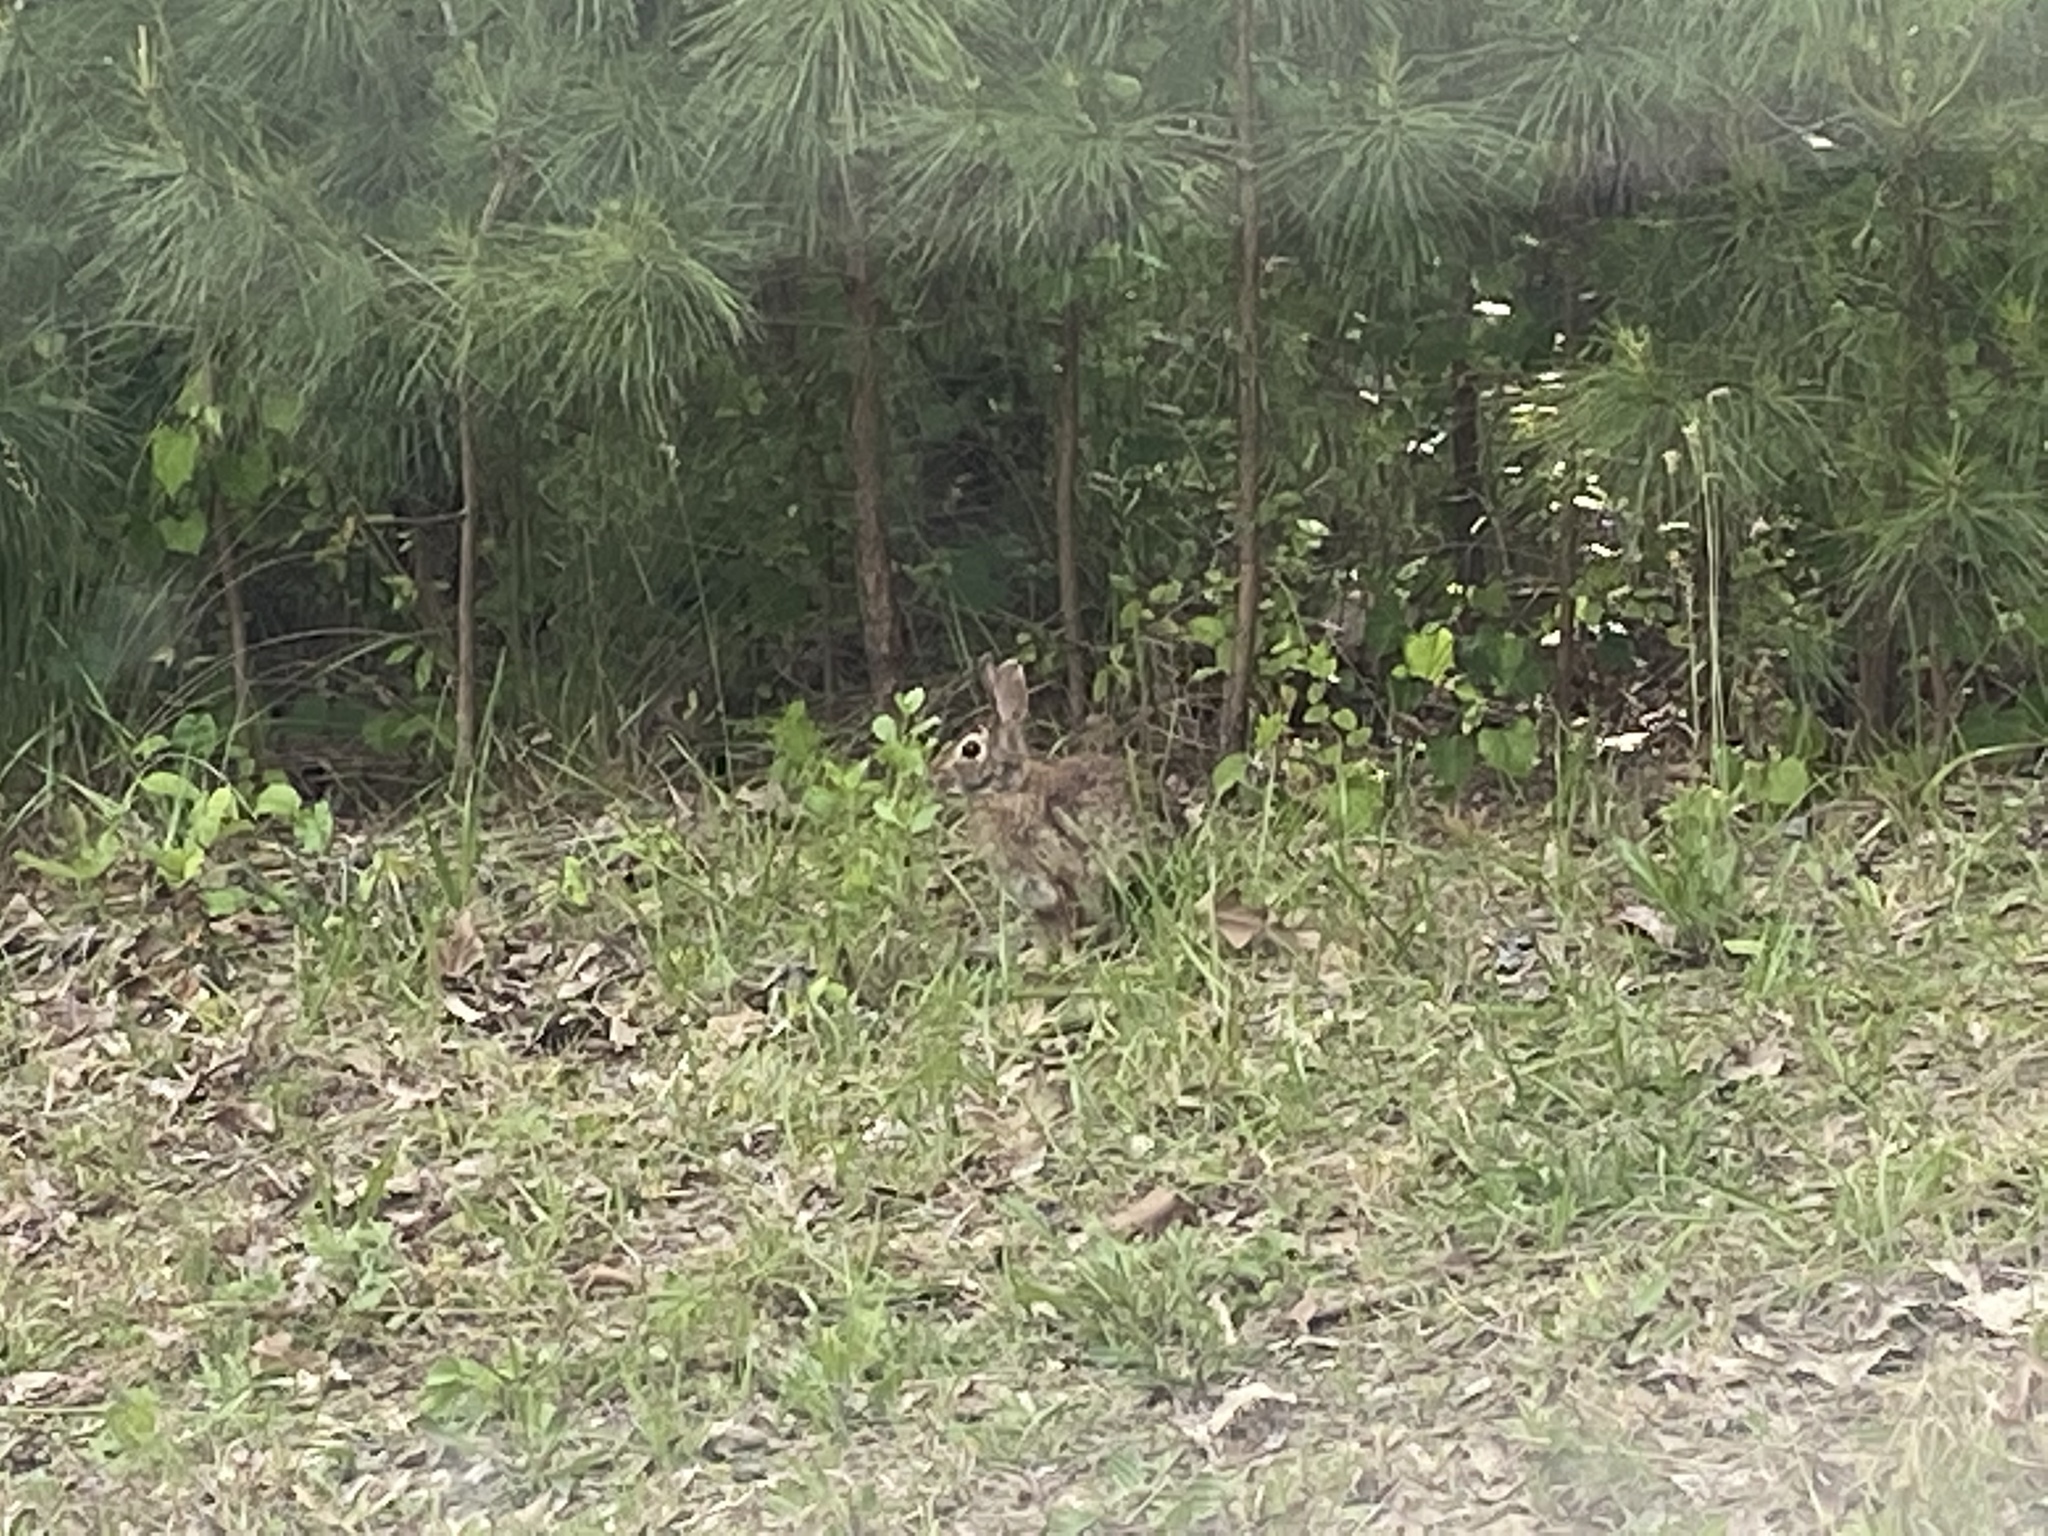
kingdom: Animalia
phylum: Chordata
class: Mammalia
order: Lagomorpha
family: Leporidae
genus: Sylvilagus
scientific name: Sylvilagus floridanus
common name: Eastern cottontail
